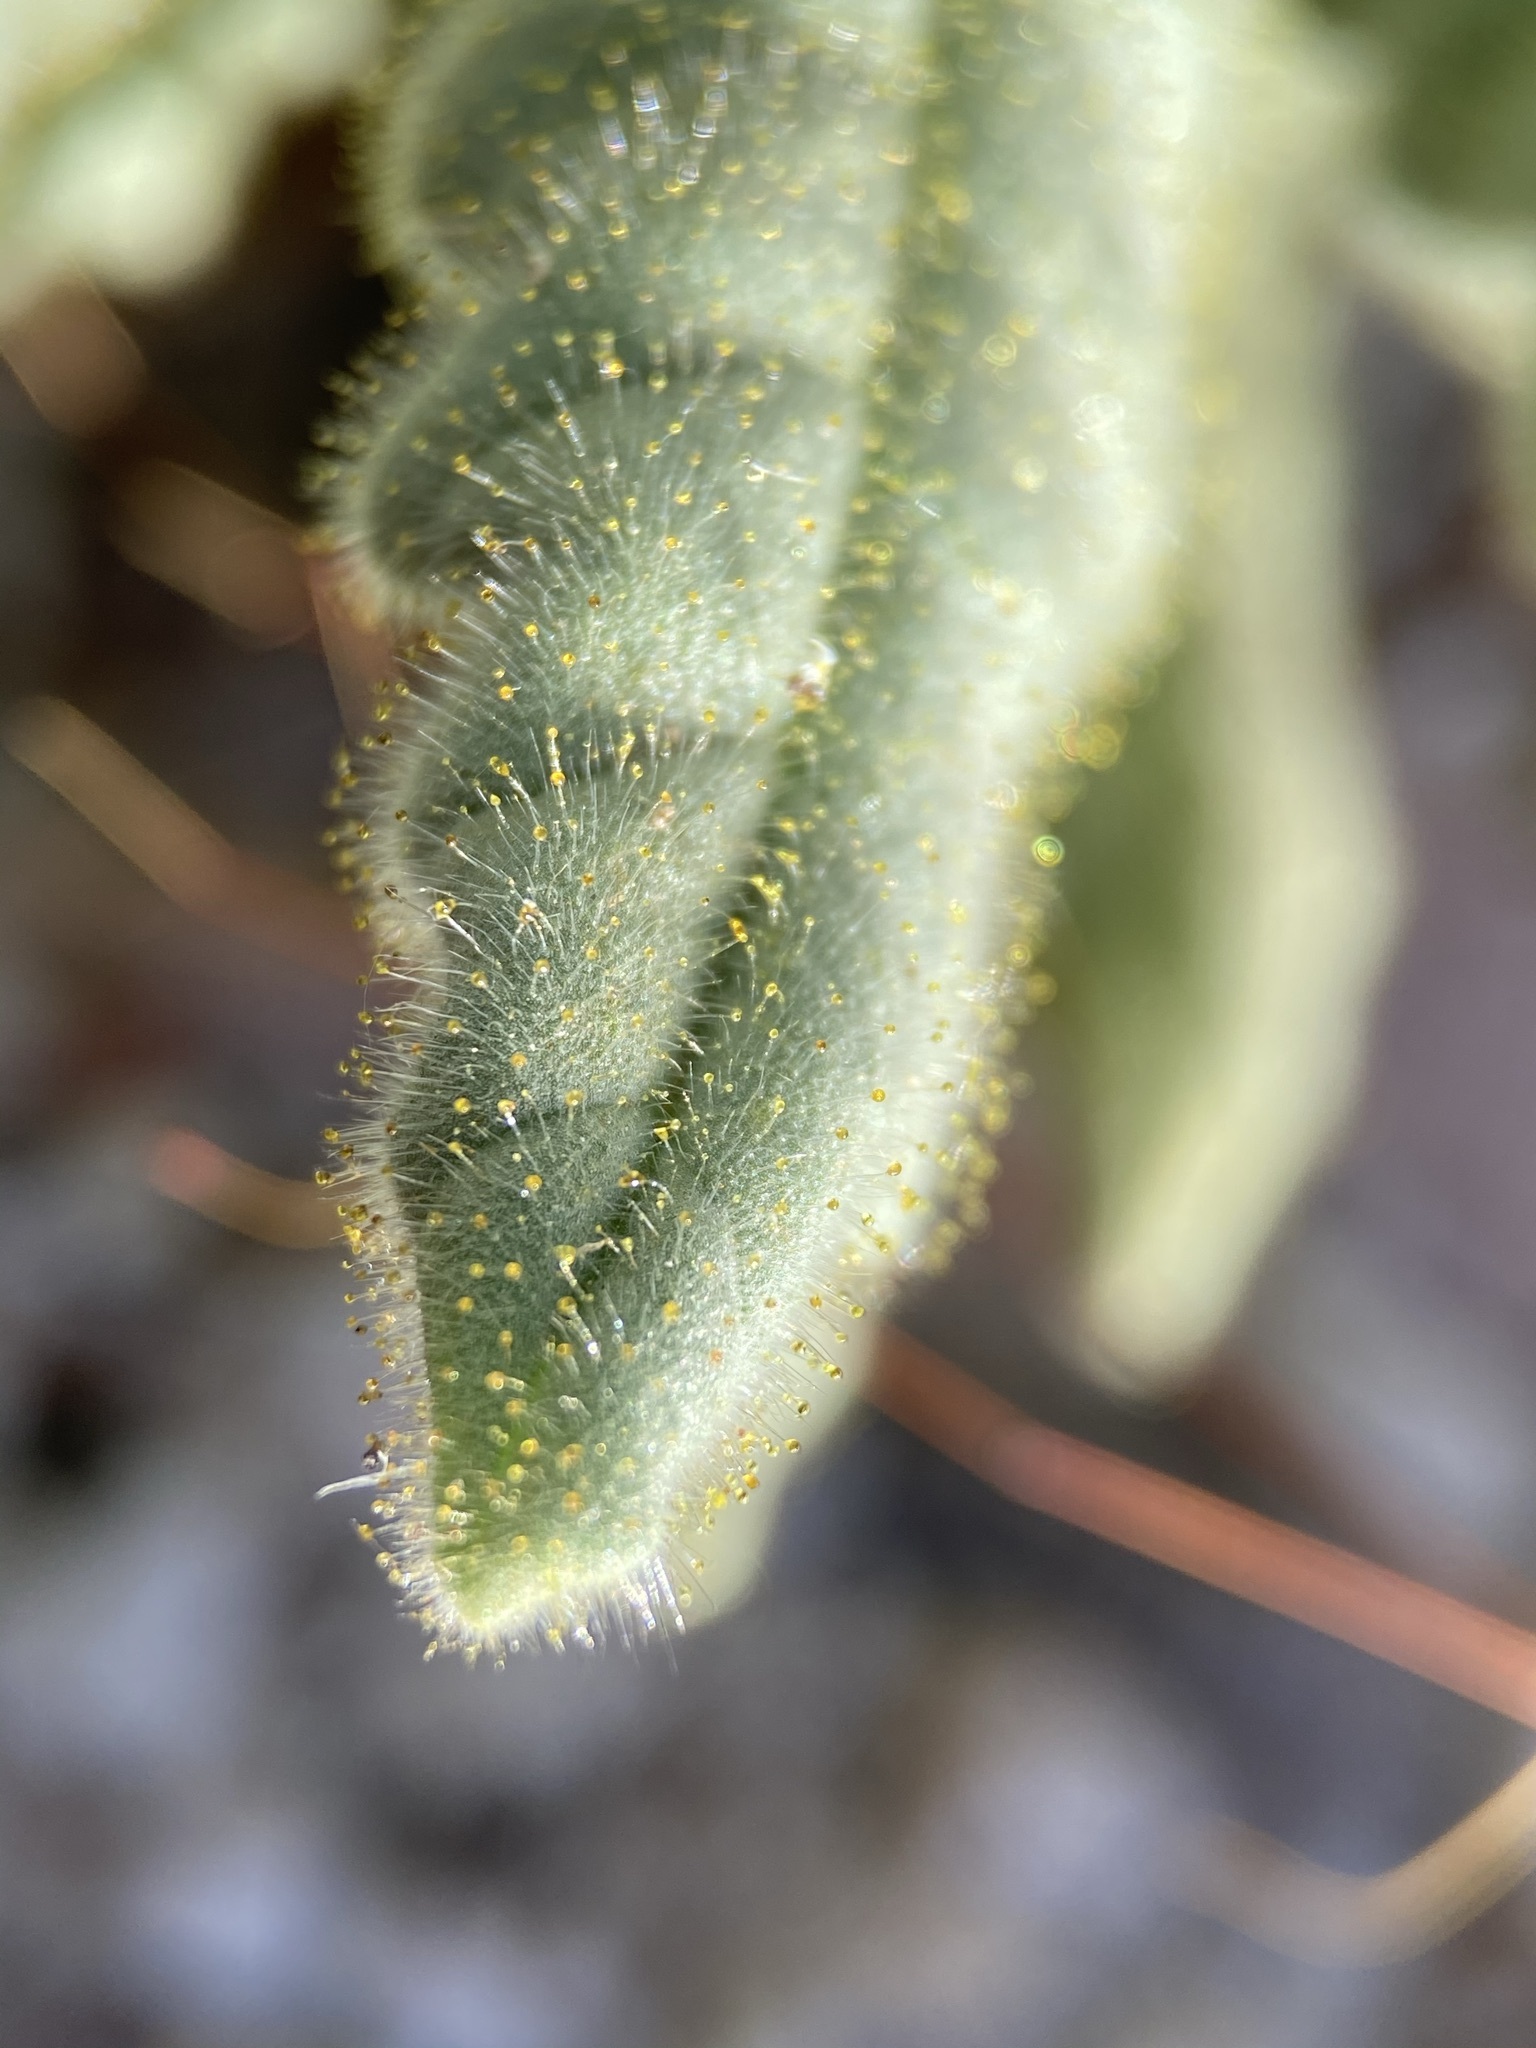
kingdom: Plantae
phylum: Tracheophyta
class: Magnoliopsida
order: Boraginales
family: Hydrophyllaceae
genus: Phacelia
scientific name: Phacelia palmeri
